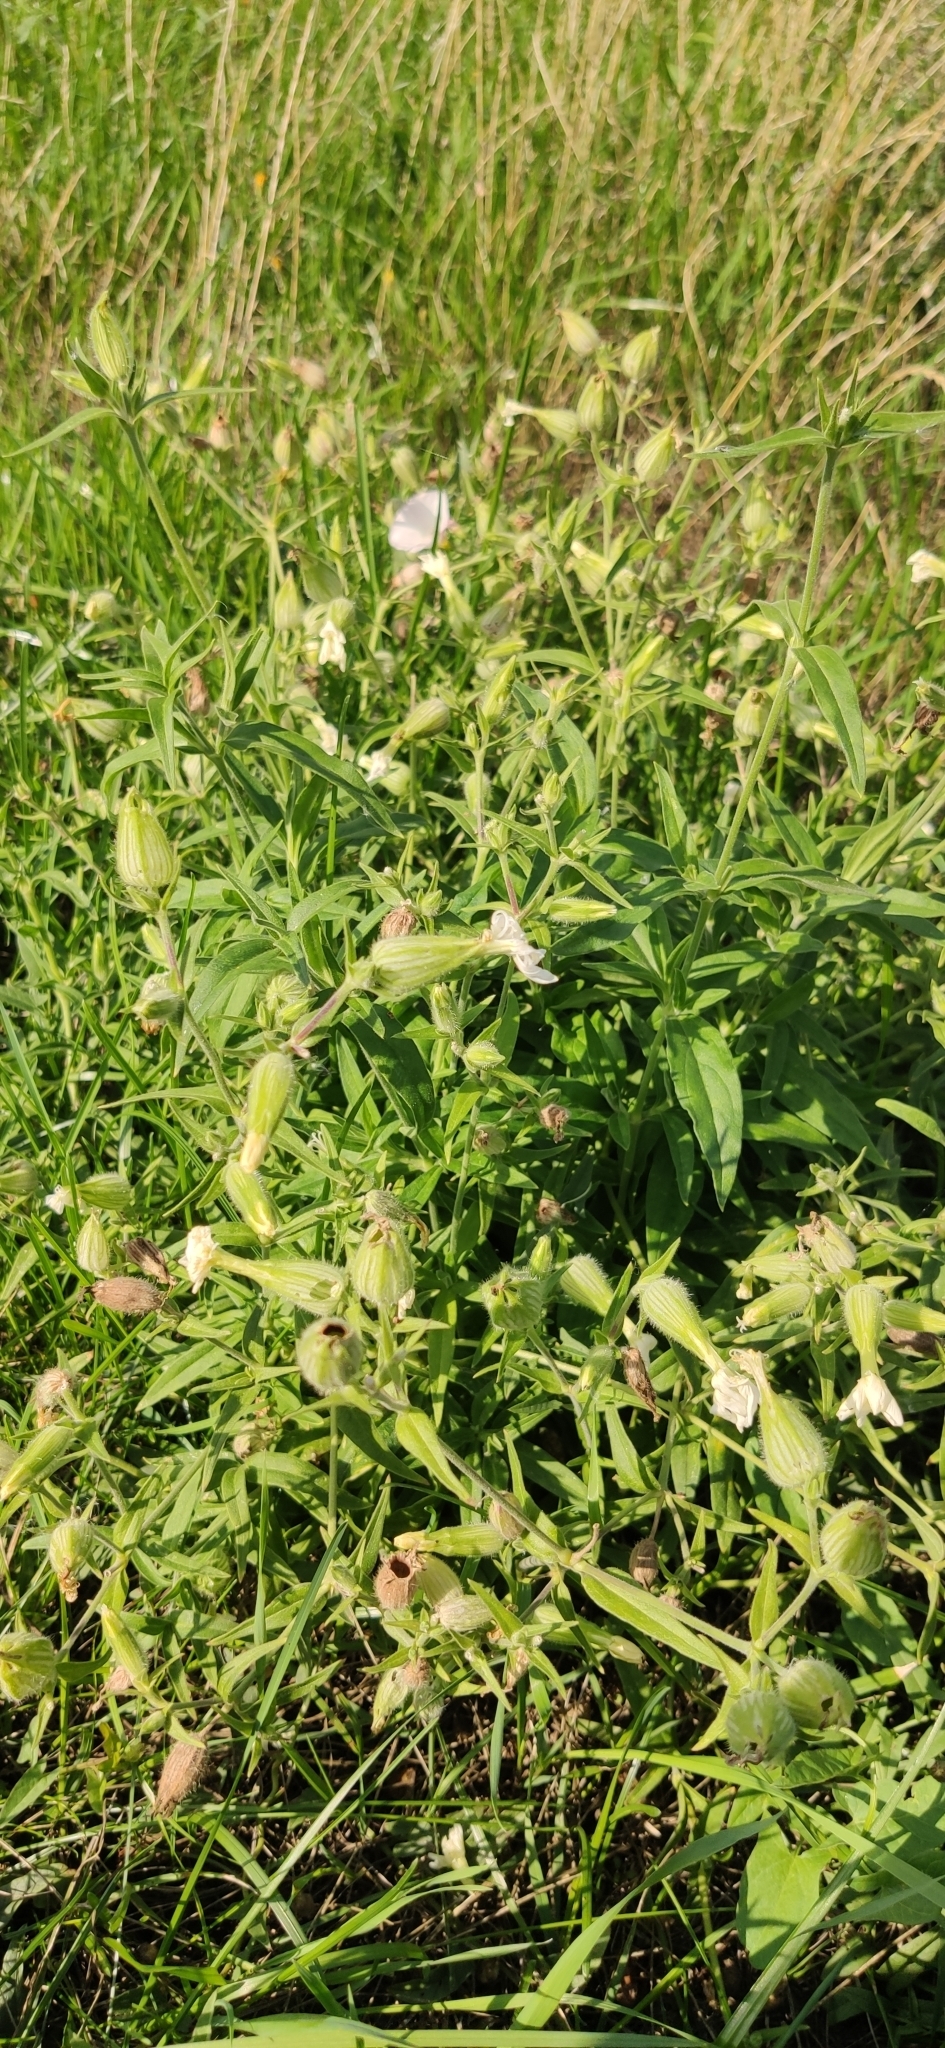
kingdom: Plantae
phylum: Tracheophyta
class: Magnoliopsida
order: Caryophyllales
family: Caryophyllaceae
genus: Silene
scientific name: Silene latifolia
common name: White campion
